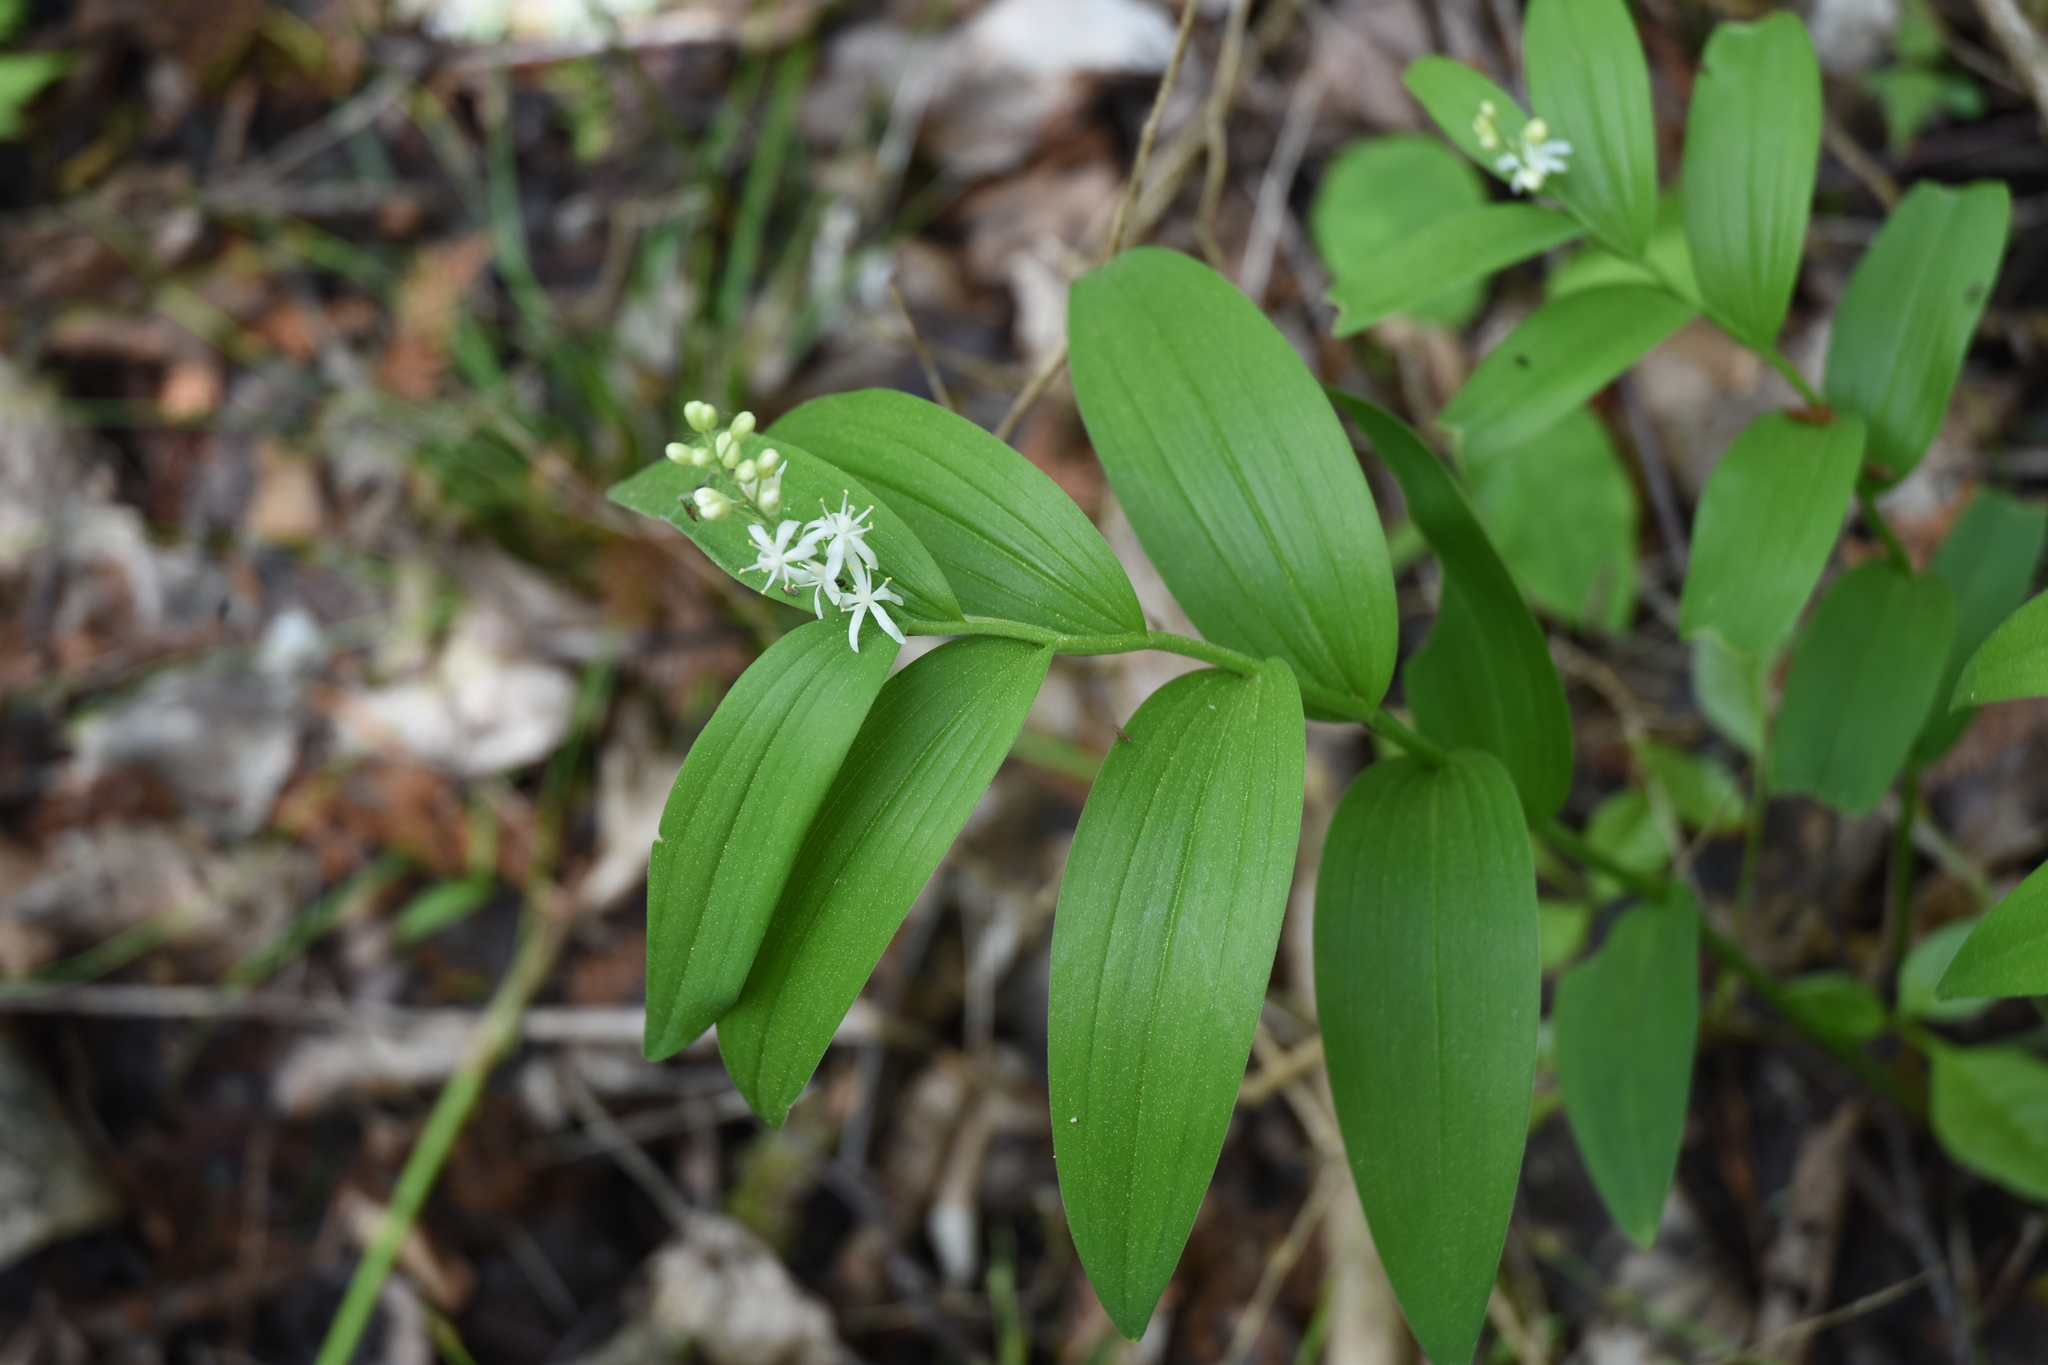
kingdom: Plantae
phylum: Tracheophyta
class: Liliopsida
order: Asparagales
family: Asparagaceae
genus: Maianthemum
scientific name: Maianthemum stellatum
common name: Little false solomon's seal
